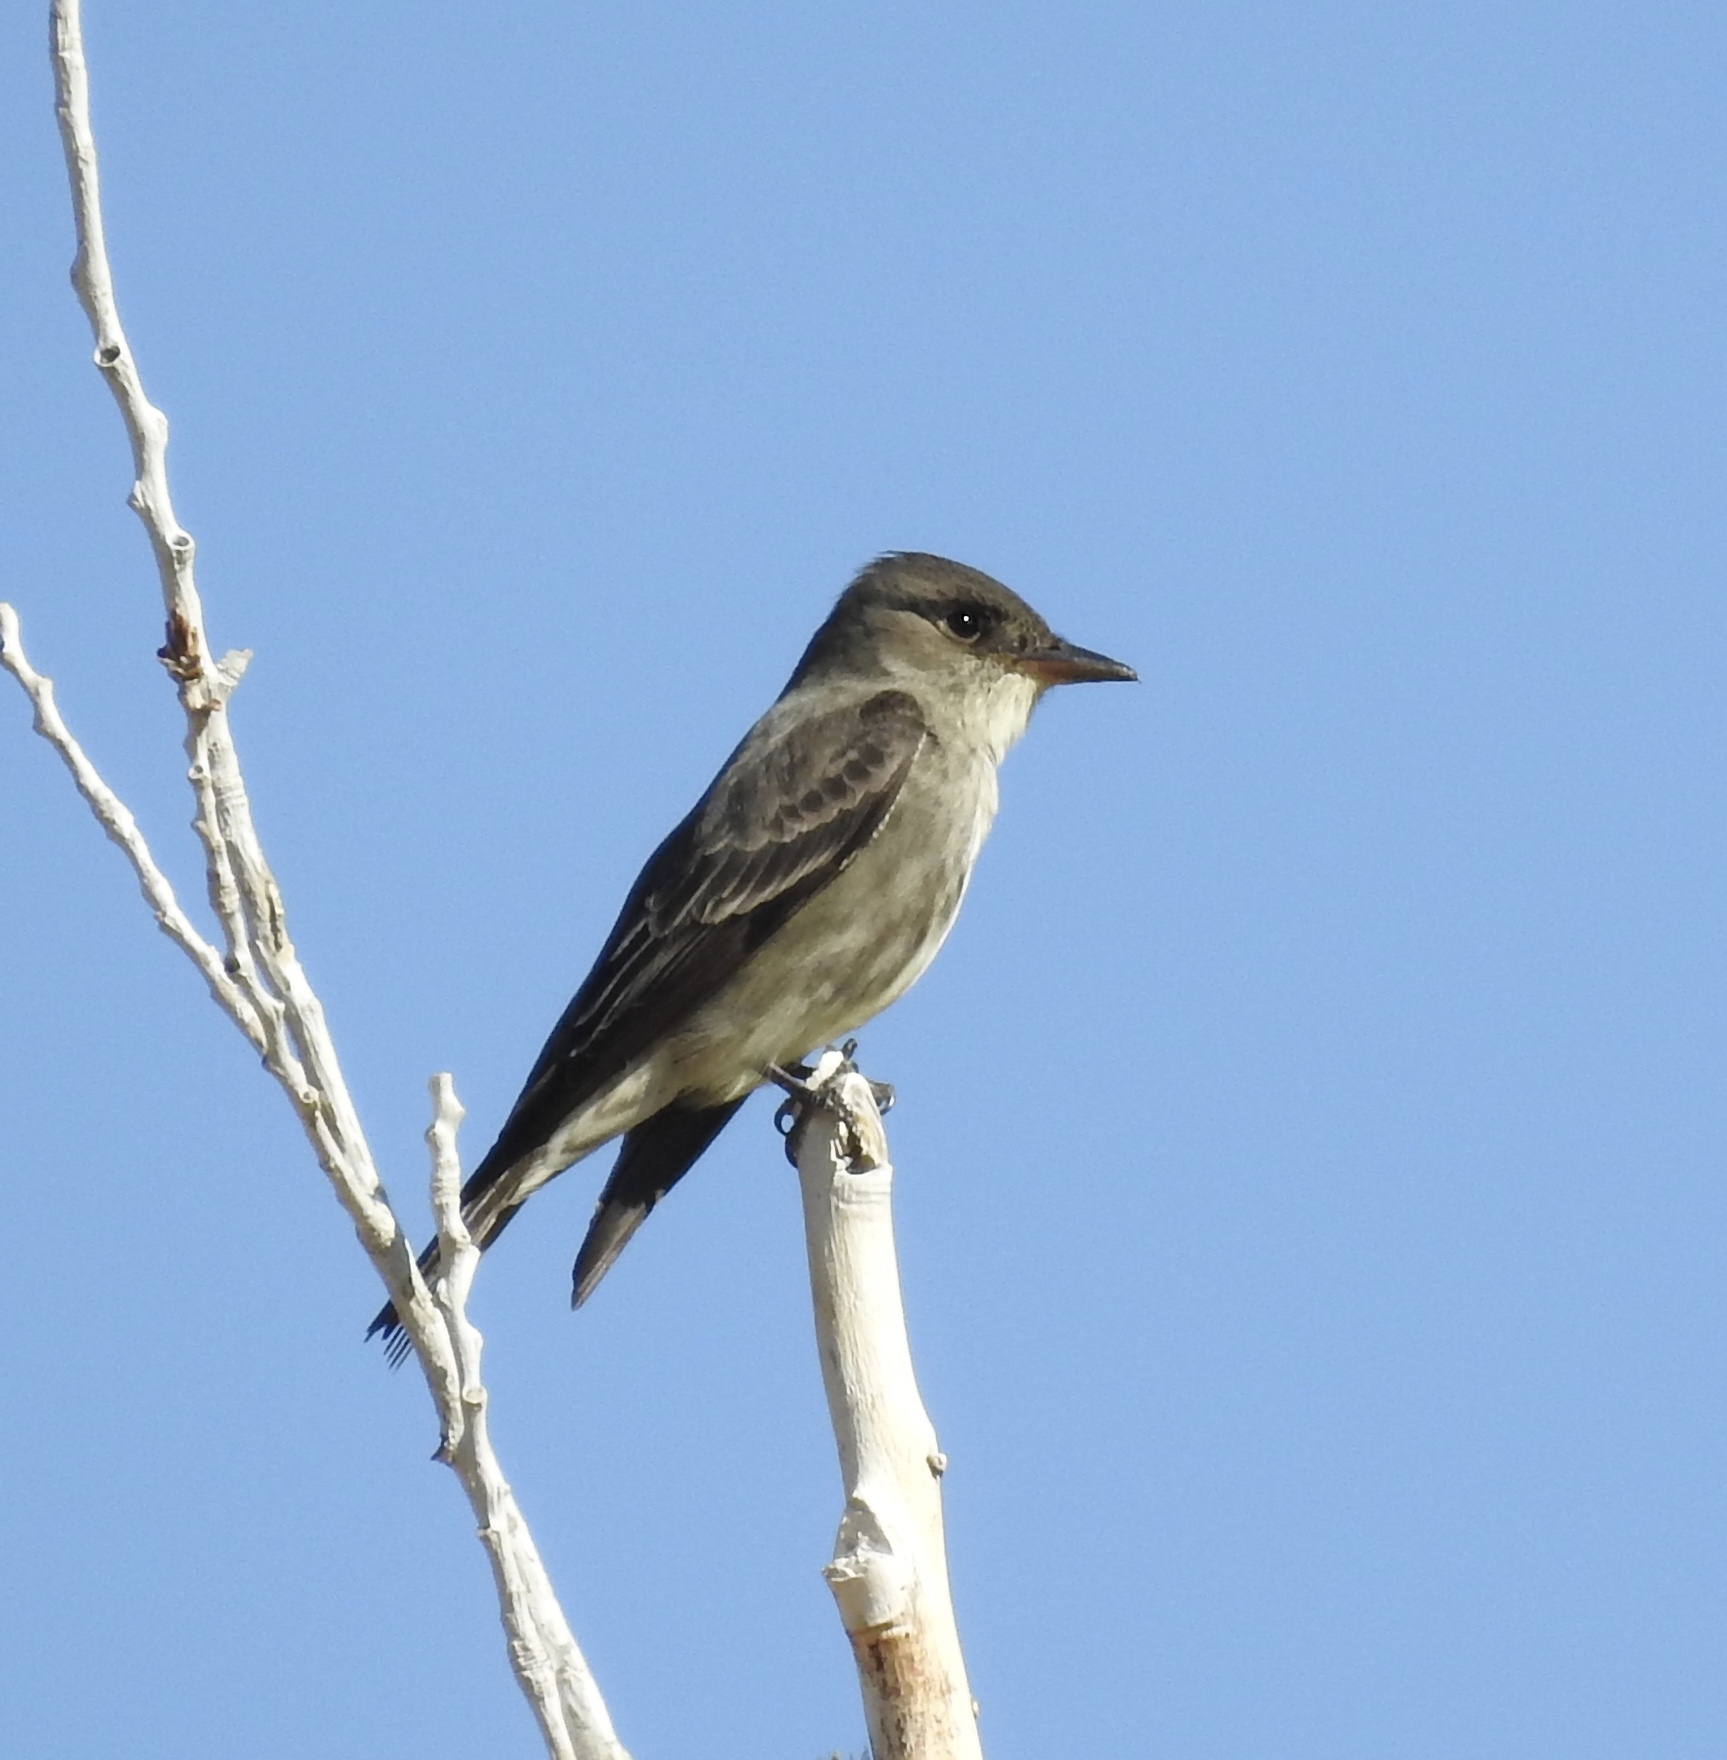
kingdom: Animalia
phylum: Chordata
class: Aves
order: Passeriformes
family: Tyrannidae
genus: Contopus
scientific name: Contopus cooperi
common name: Olive-sided flycatcher
